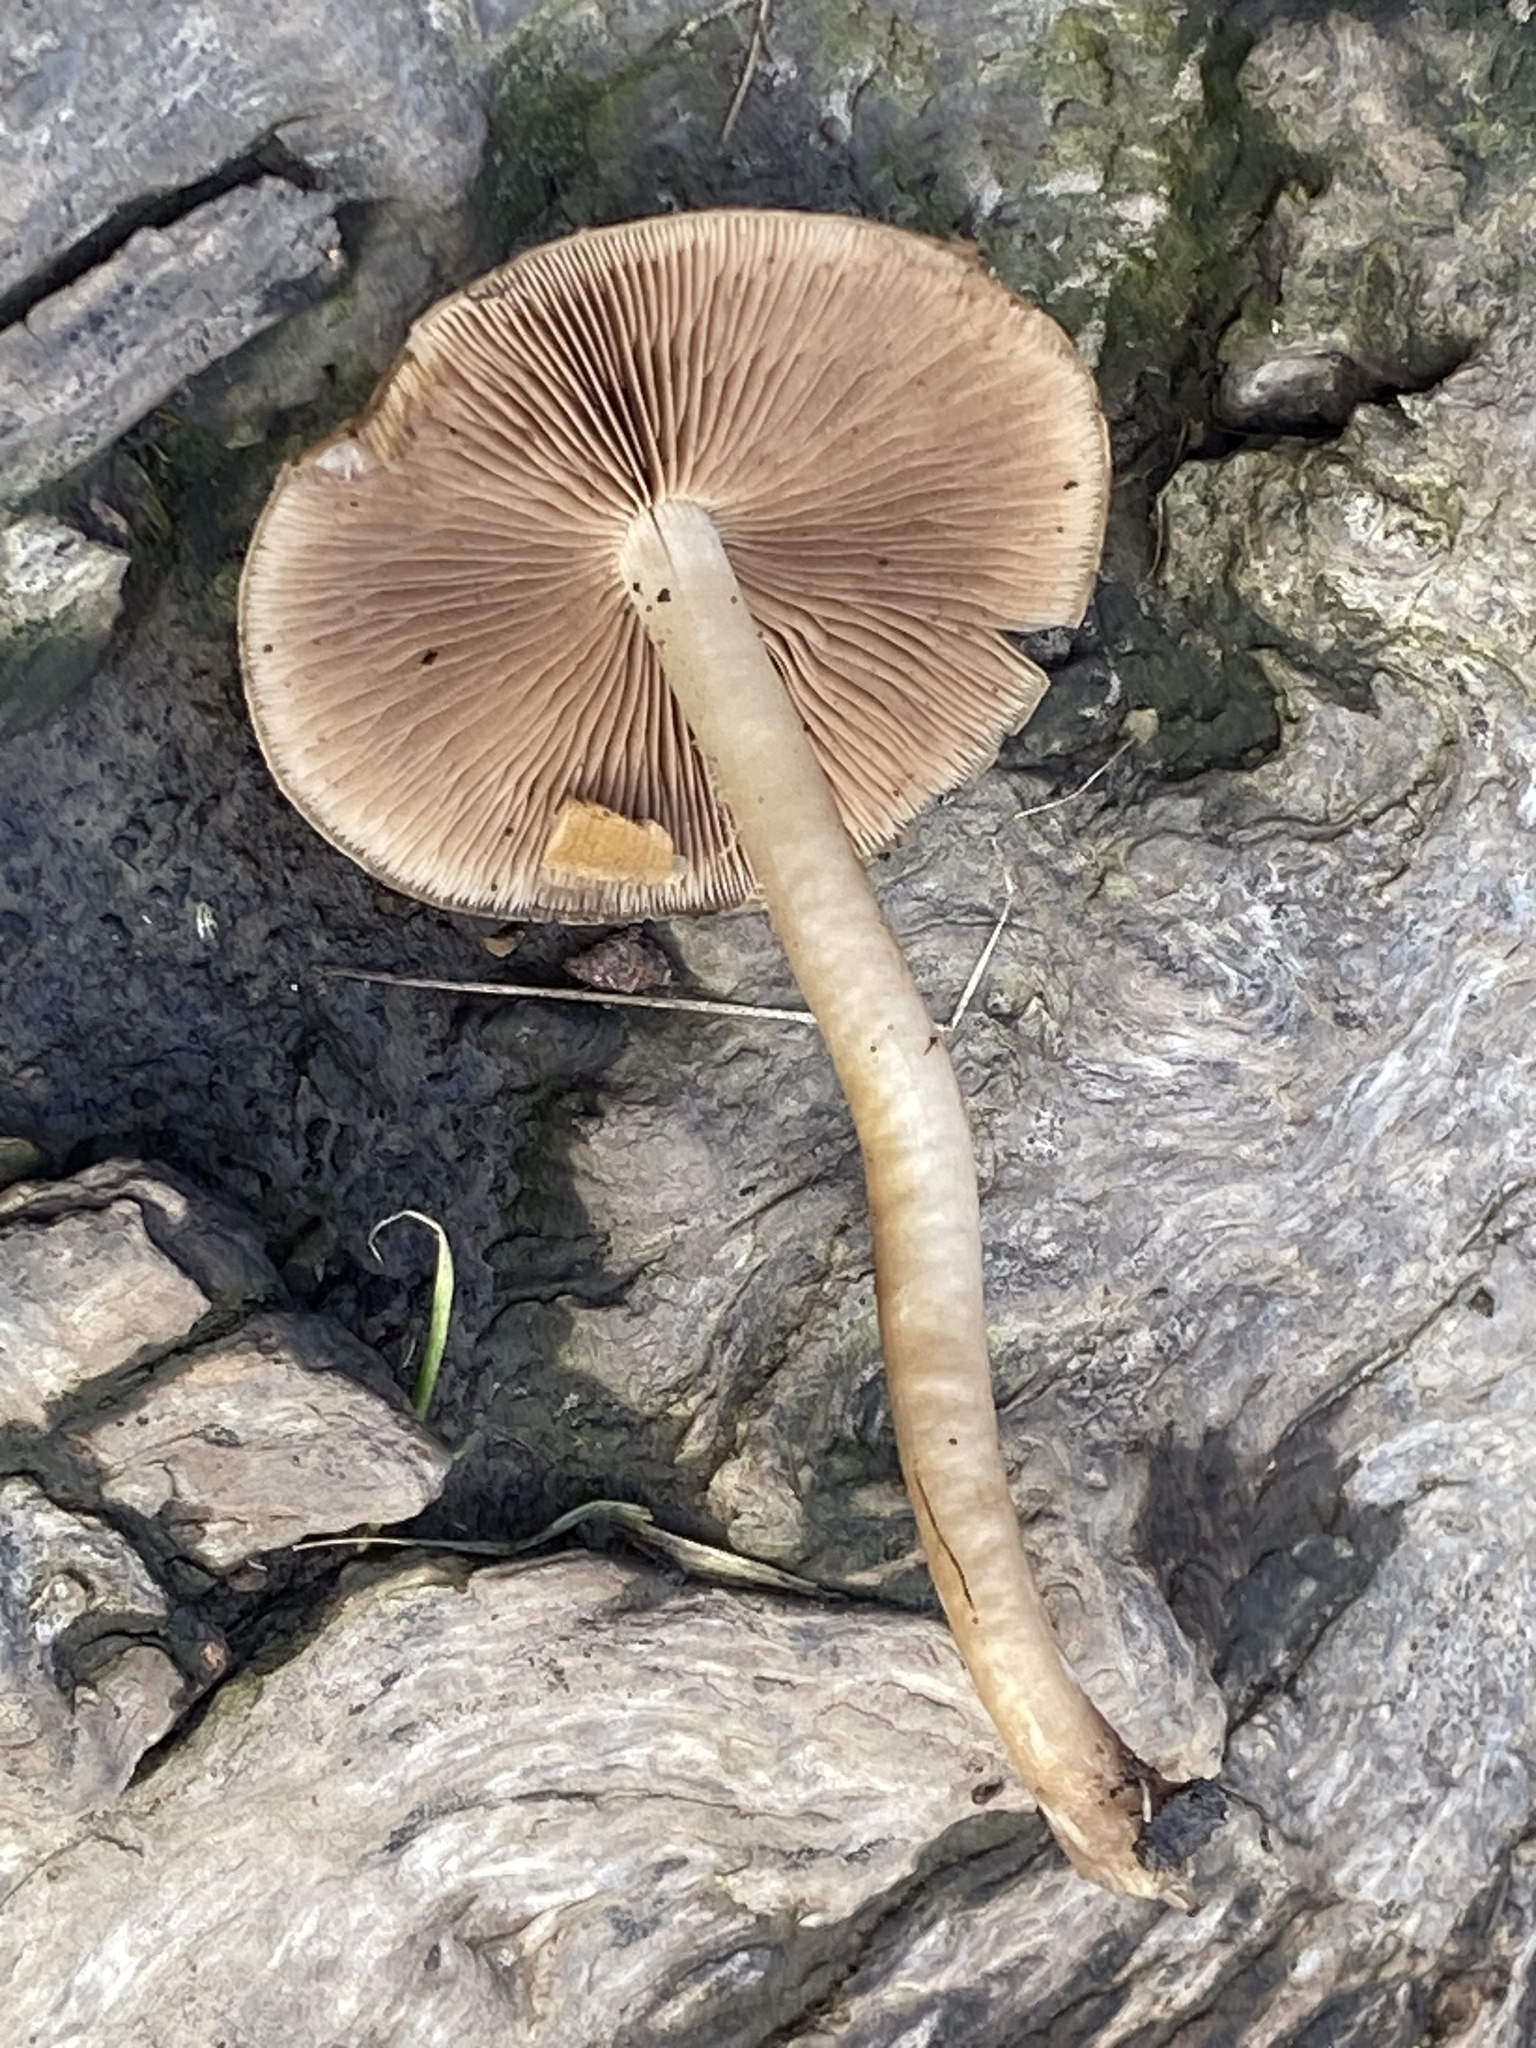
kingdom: Fungi
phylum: Basidiomycota
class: Agaricomycetes
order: Agaricales
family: Psathyrellaceae
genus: Psathyrella
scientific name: Psathyrella piluliformis
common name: Common stump brittlestem
